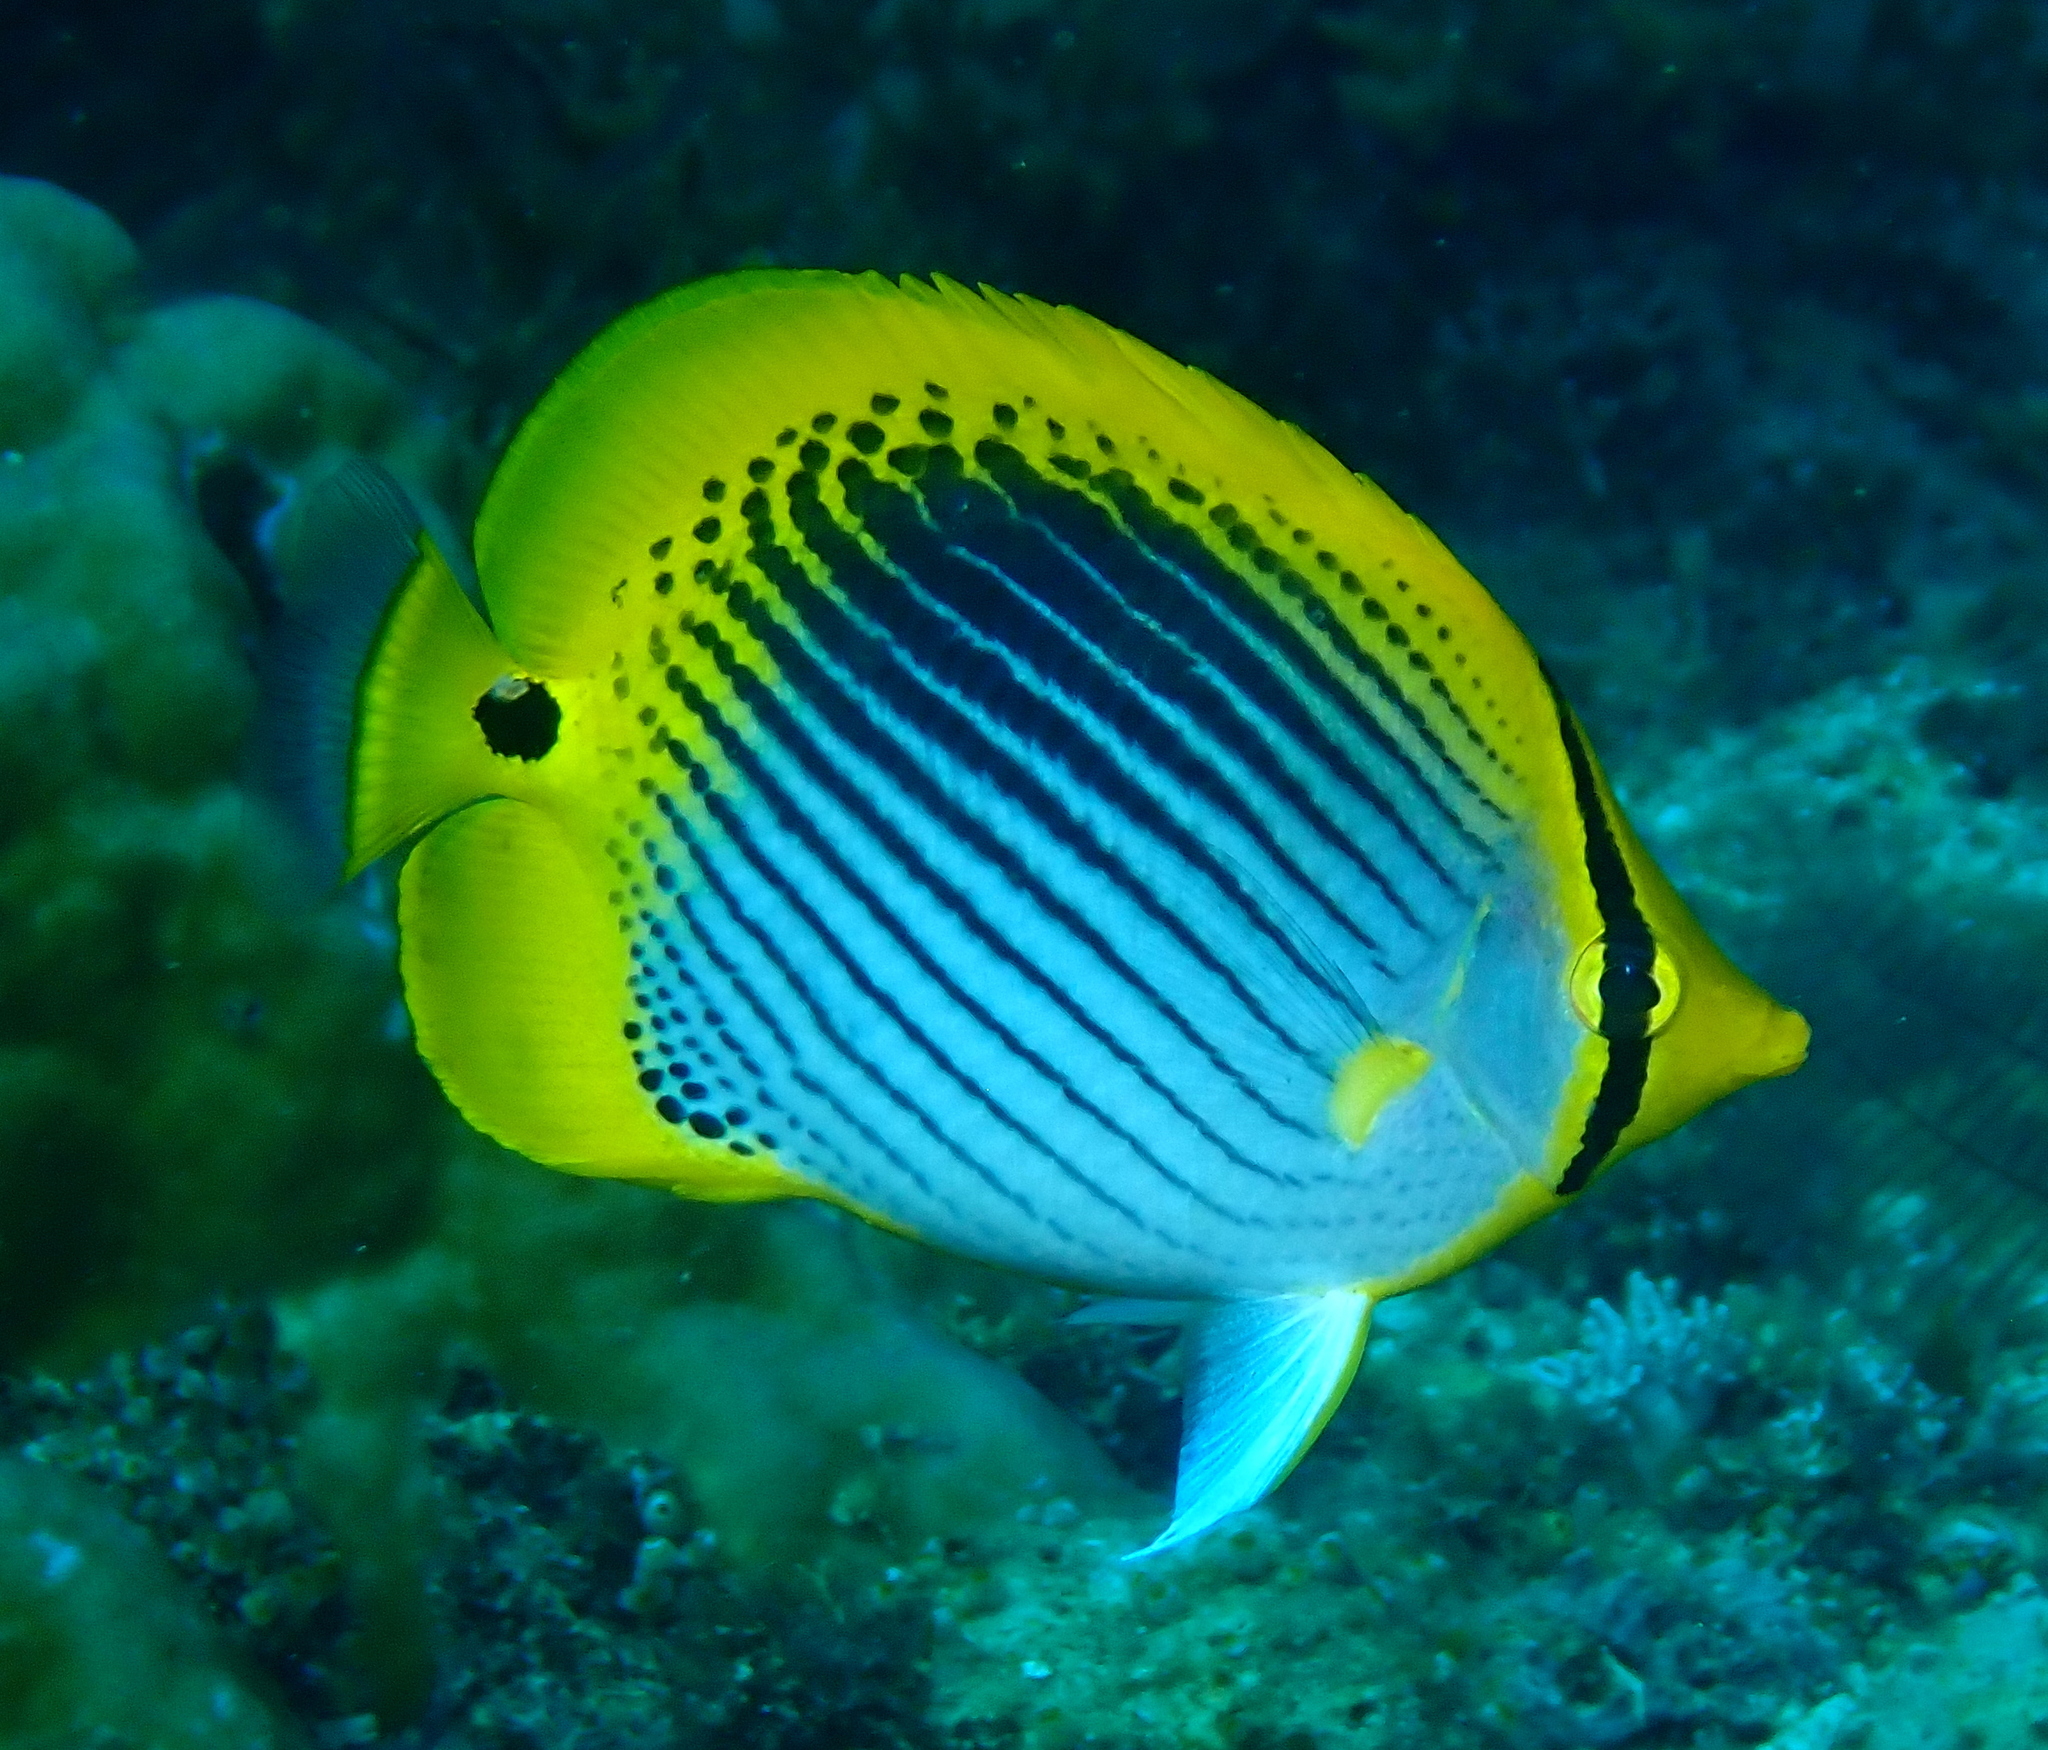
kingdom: Animalia
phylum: Chordata
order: Perciformes
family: Chaetodontidae
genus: Chaetodon
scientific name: Chaetodon ocellicaudus
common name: Spot-tail butterflyfish
